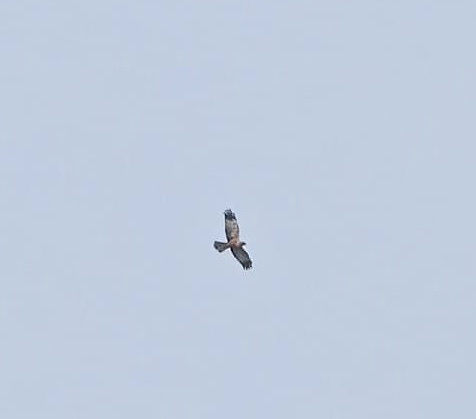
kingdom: Animalia
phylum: Chordata
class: Aves
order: Accipitriformes
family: Accipitridae
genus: Circus
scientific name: Circus aeruginosus
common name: Western marsh harrier
